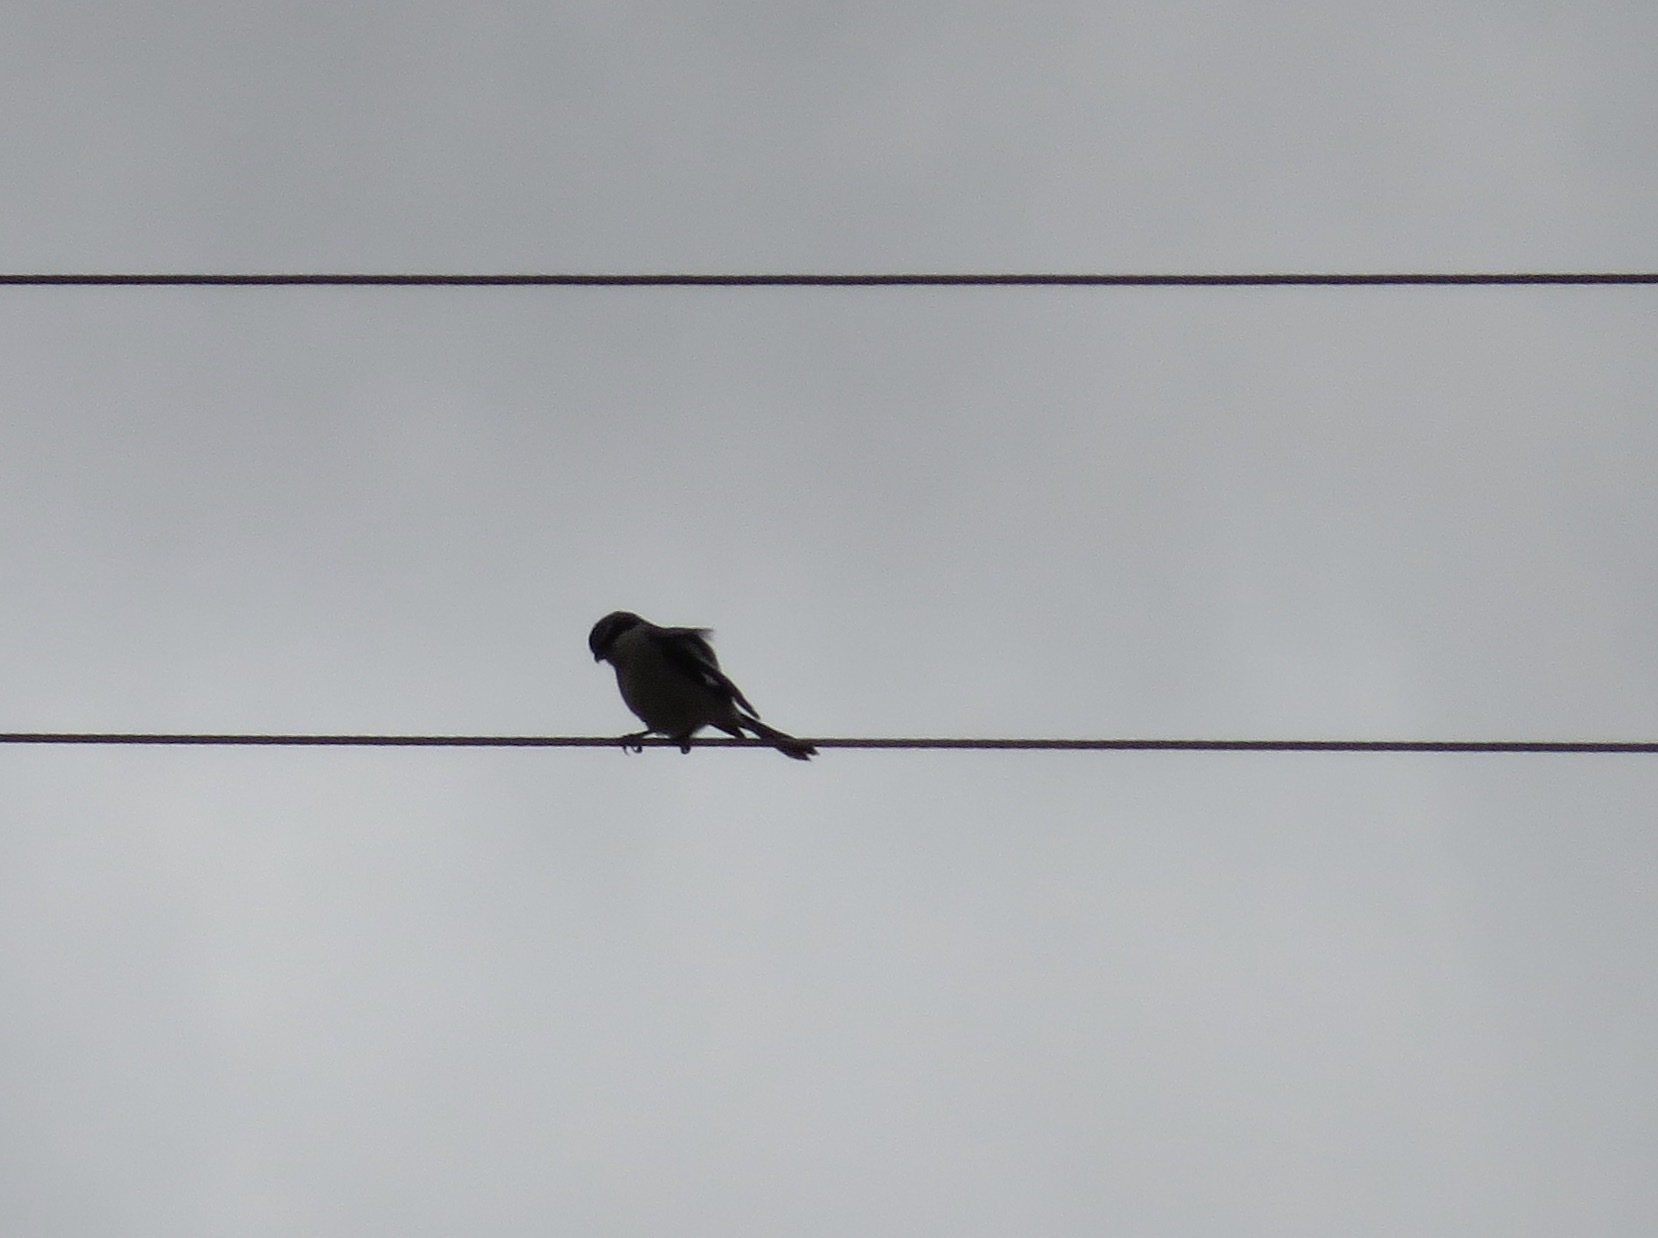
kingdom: Animalia
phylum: Chordata
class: Aves
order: Passeriformes
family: Laniidae
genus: Lanius
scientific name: Lanius ludovicianus
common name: Loggerhead shrike
